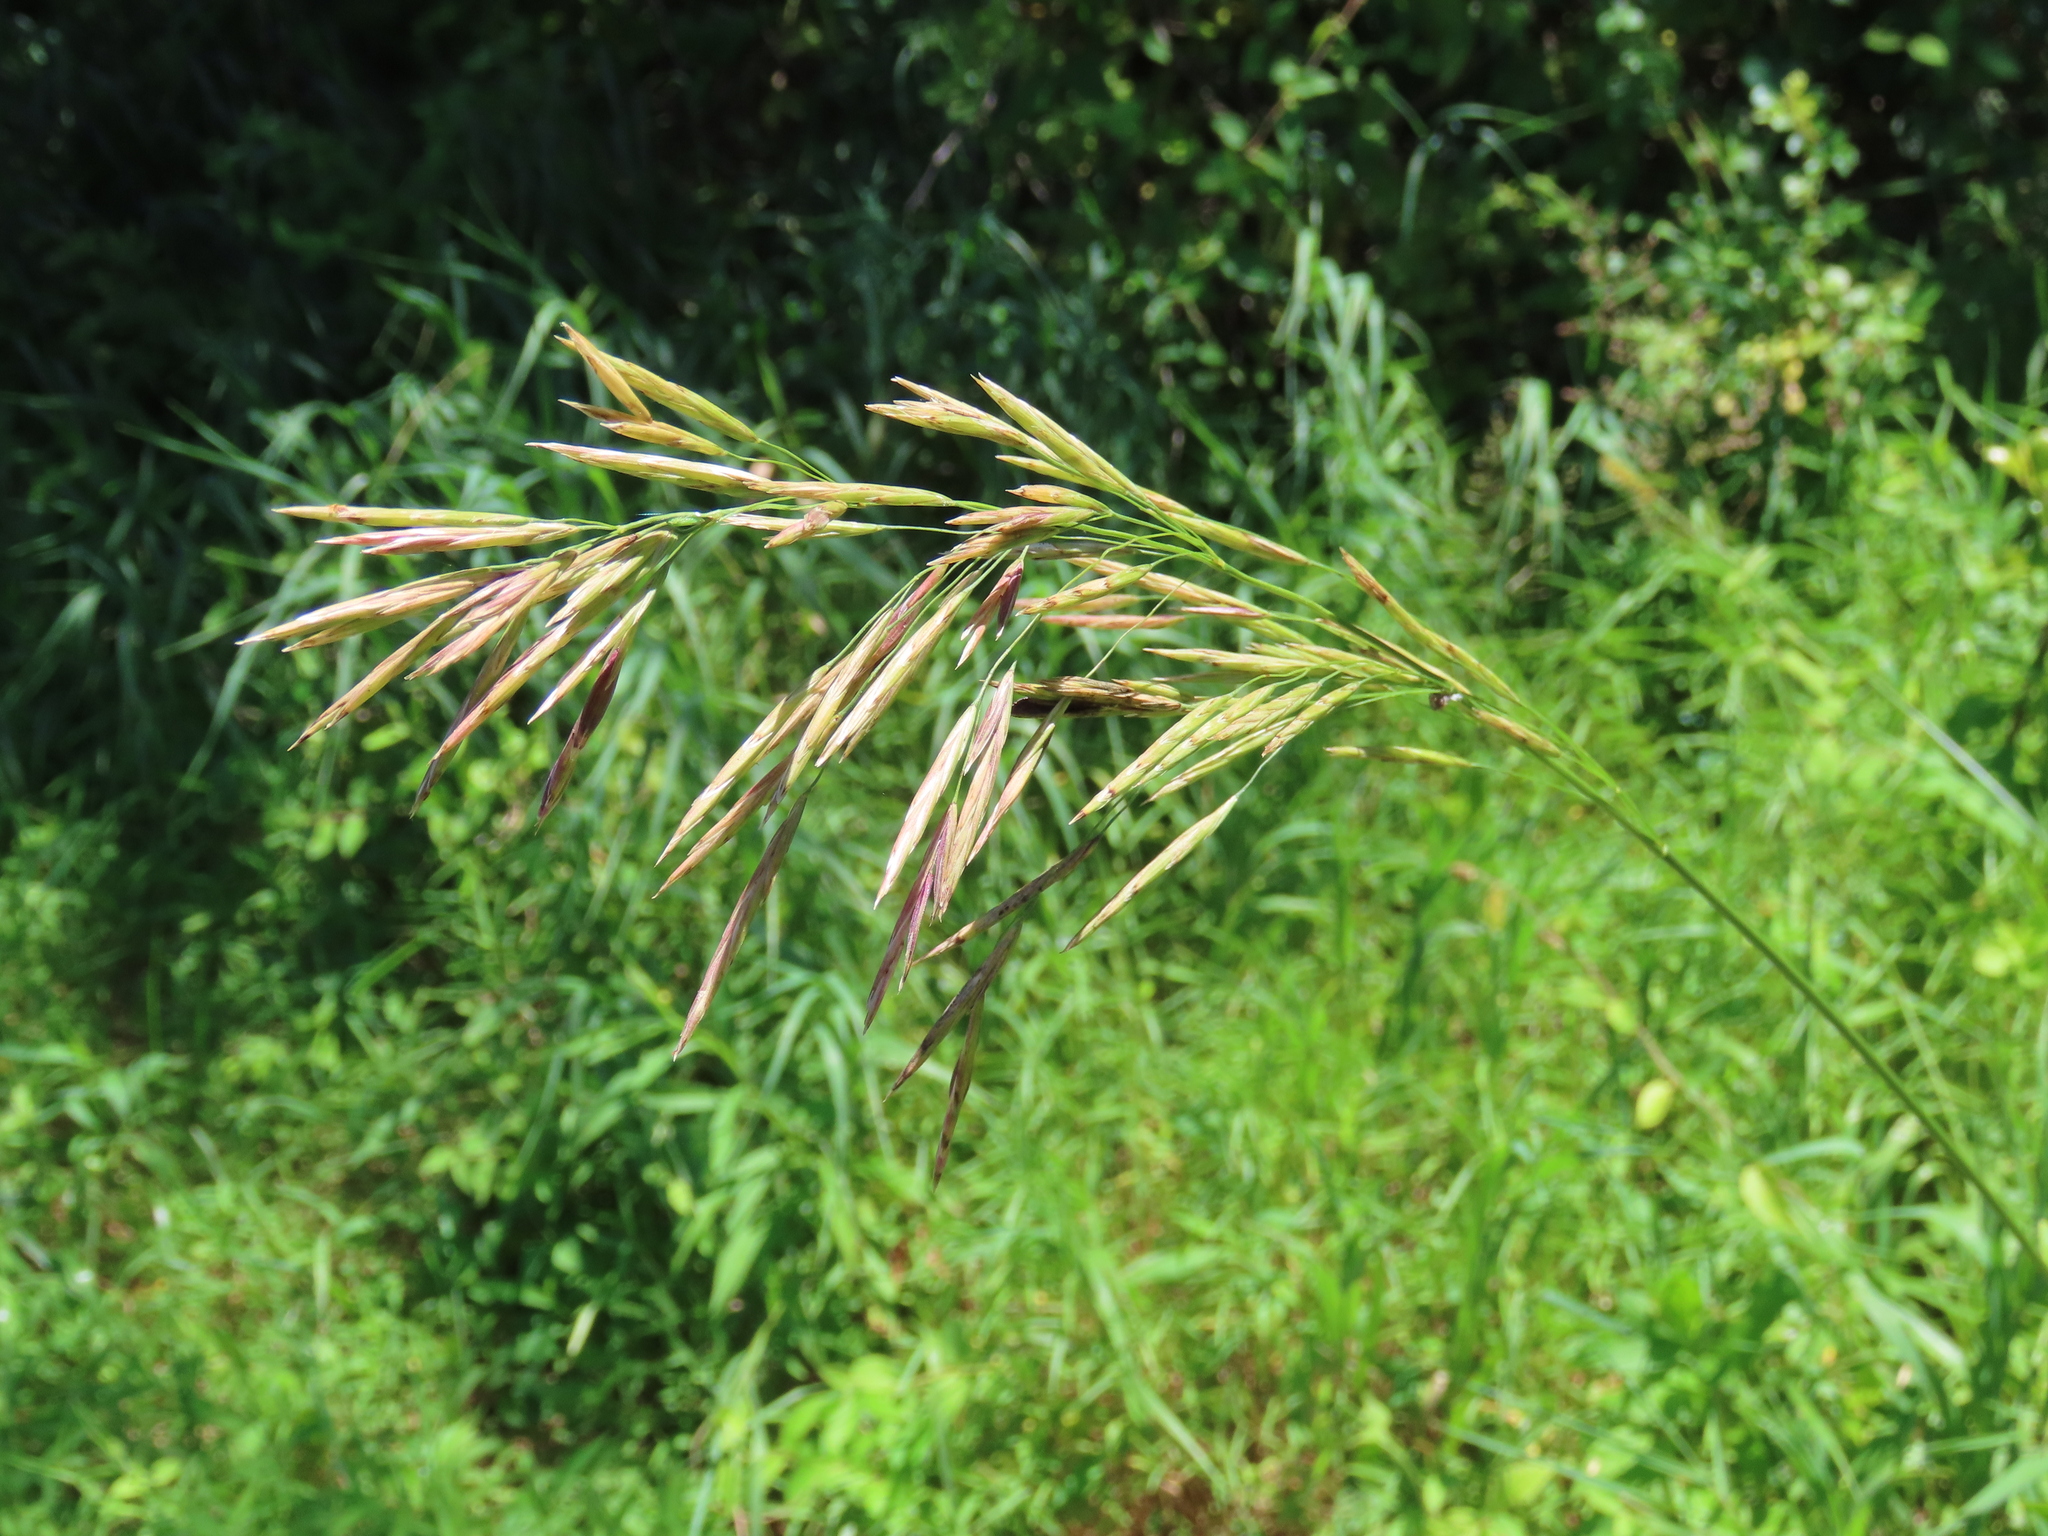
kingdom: Plantae
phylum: Tracheophyta
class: Liliopsida
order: Poales
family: Poaceae
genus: Bromus
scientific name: Bromus inermis
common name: Smooth brome
